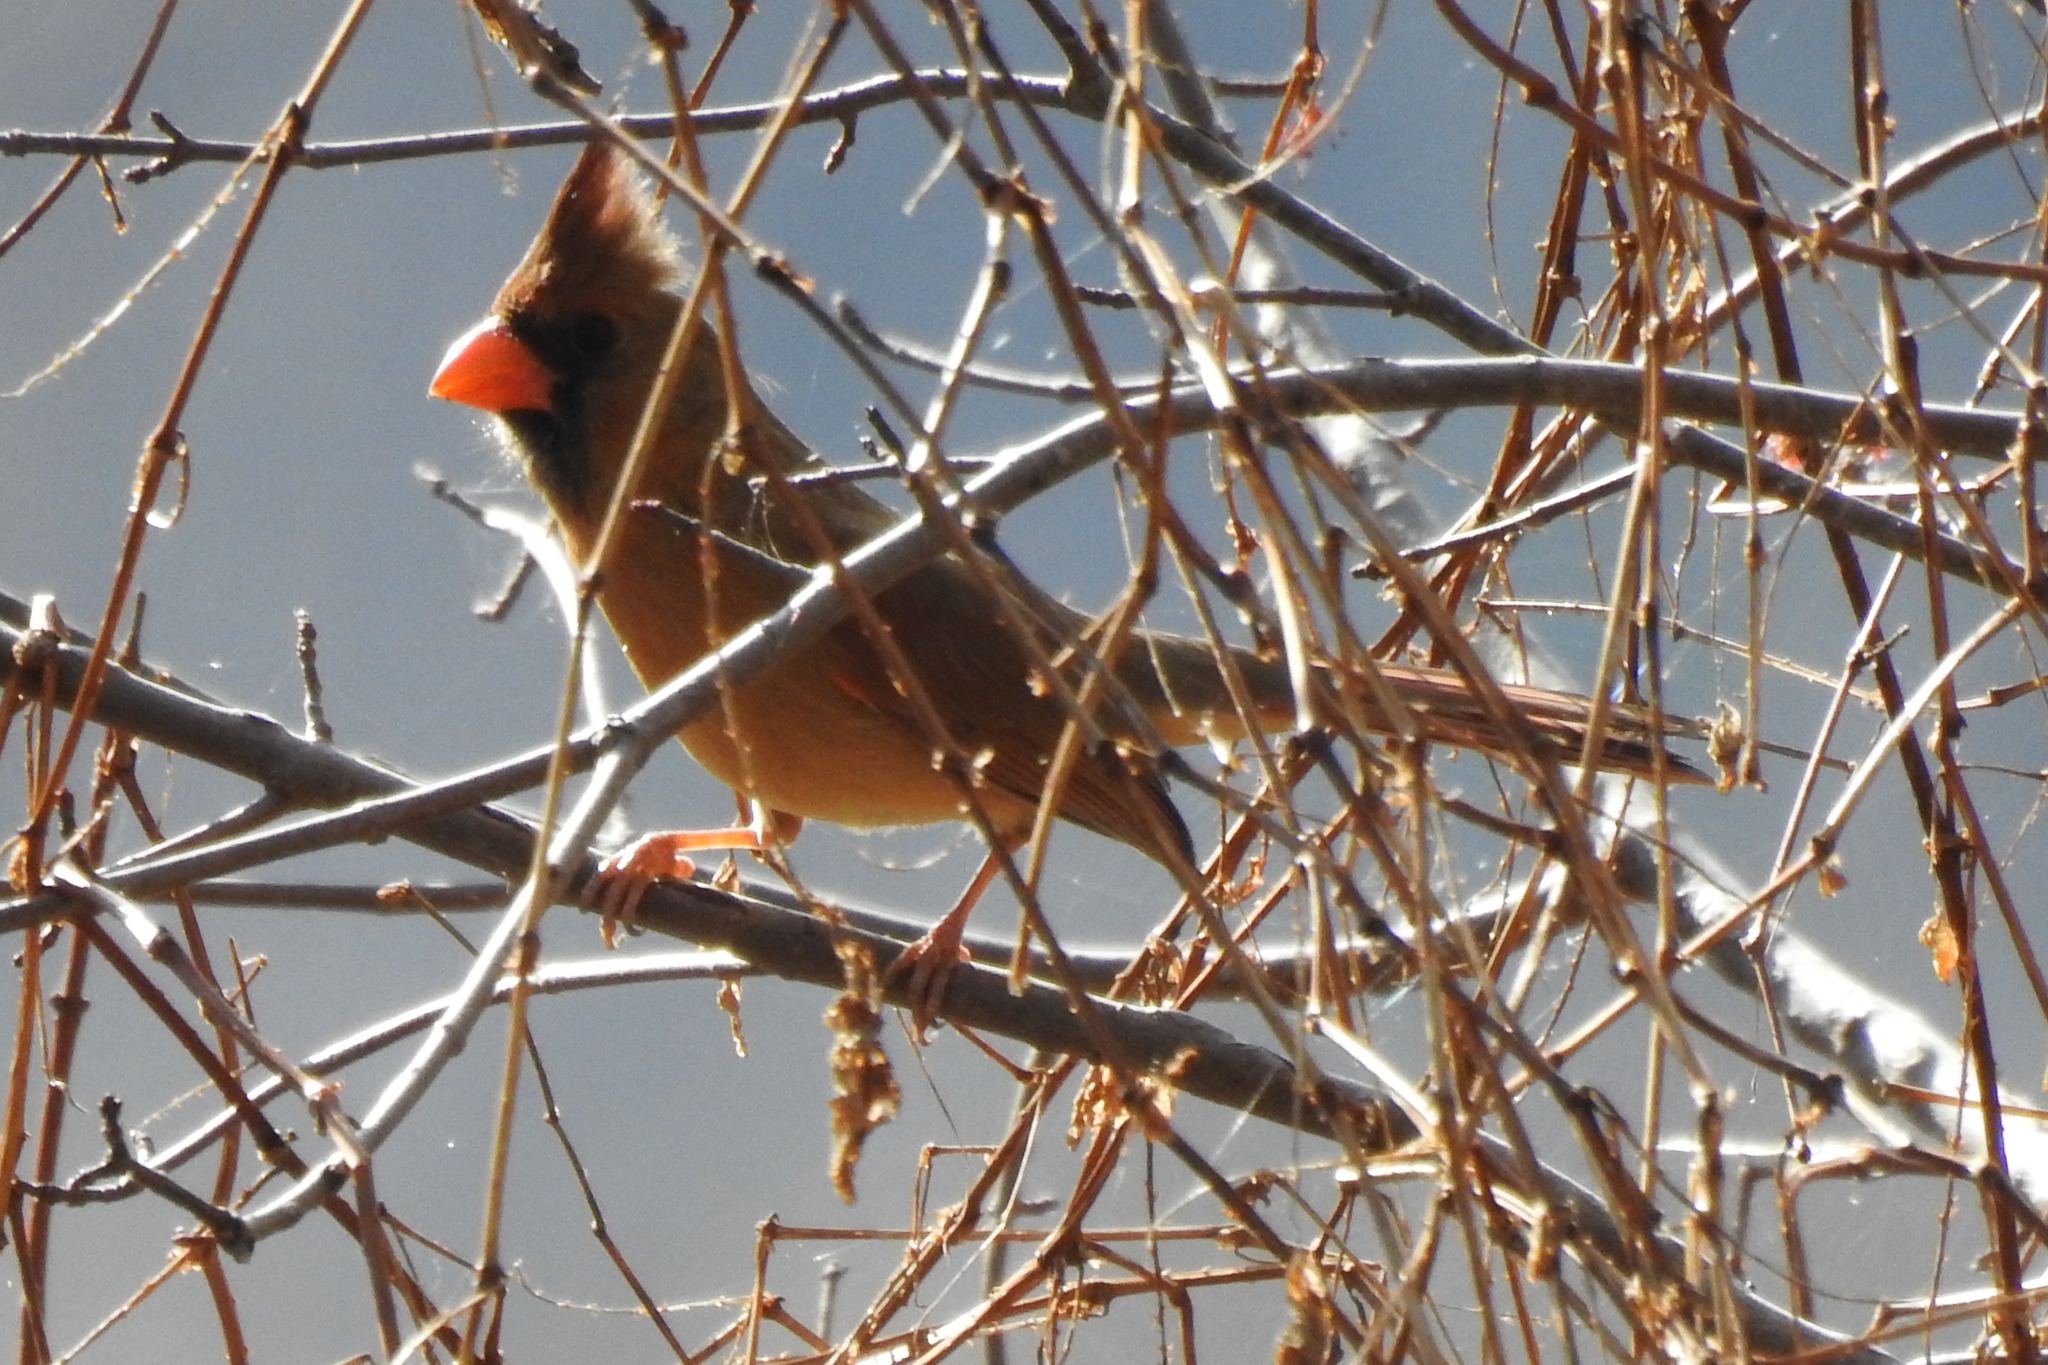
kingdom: Animalia
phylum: Chordata
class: Aves
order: Passeriformes
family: Cardinalidae
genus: Cardinalis
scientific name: Cardinalis cardinalis
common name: Northern cardinal
